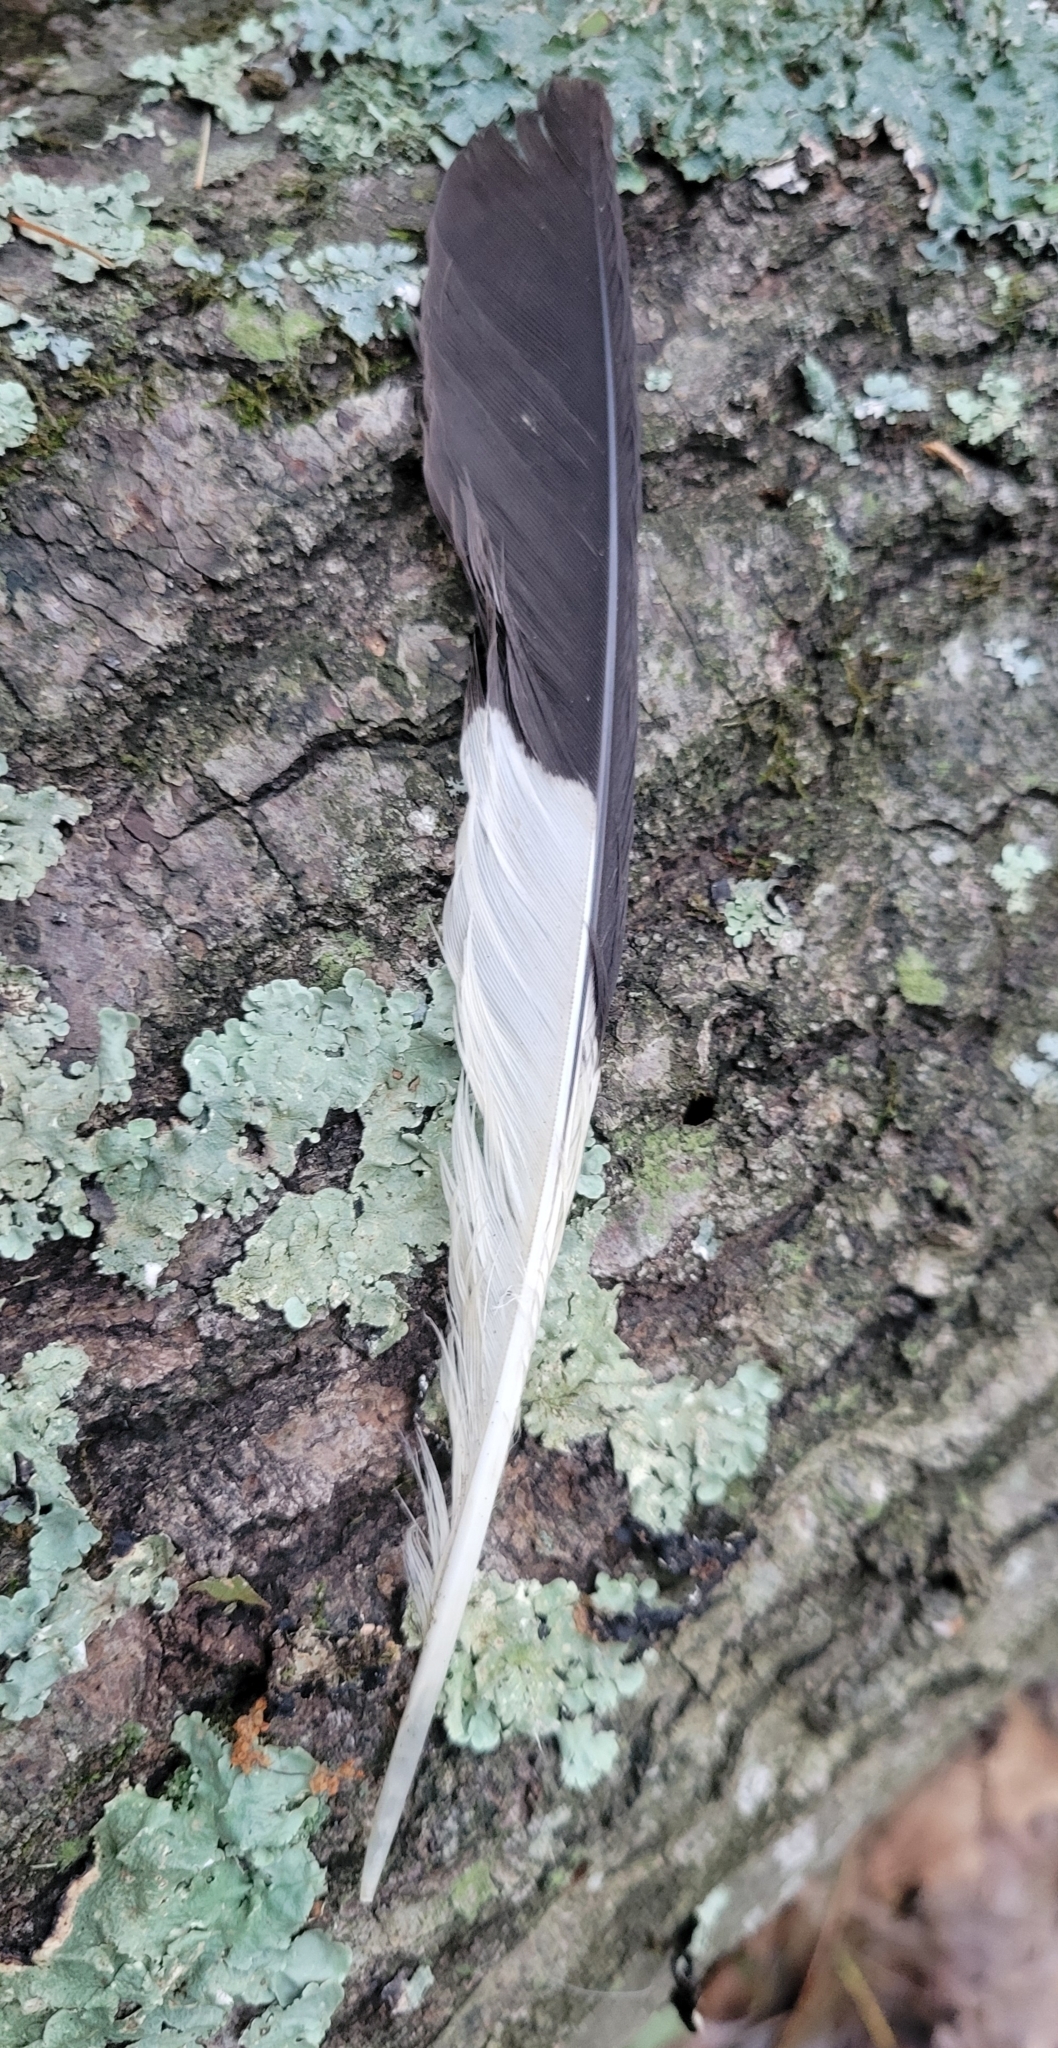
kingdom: Animalia
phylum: Chordata
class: Aves
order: Piciformes
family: Picidae
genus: Dryocopus
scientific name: Dryocopus pileatus
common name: Pileated woodpecker
